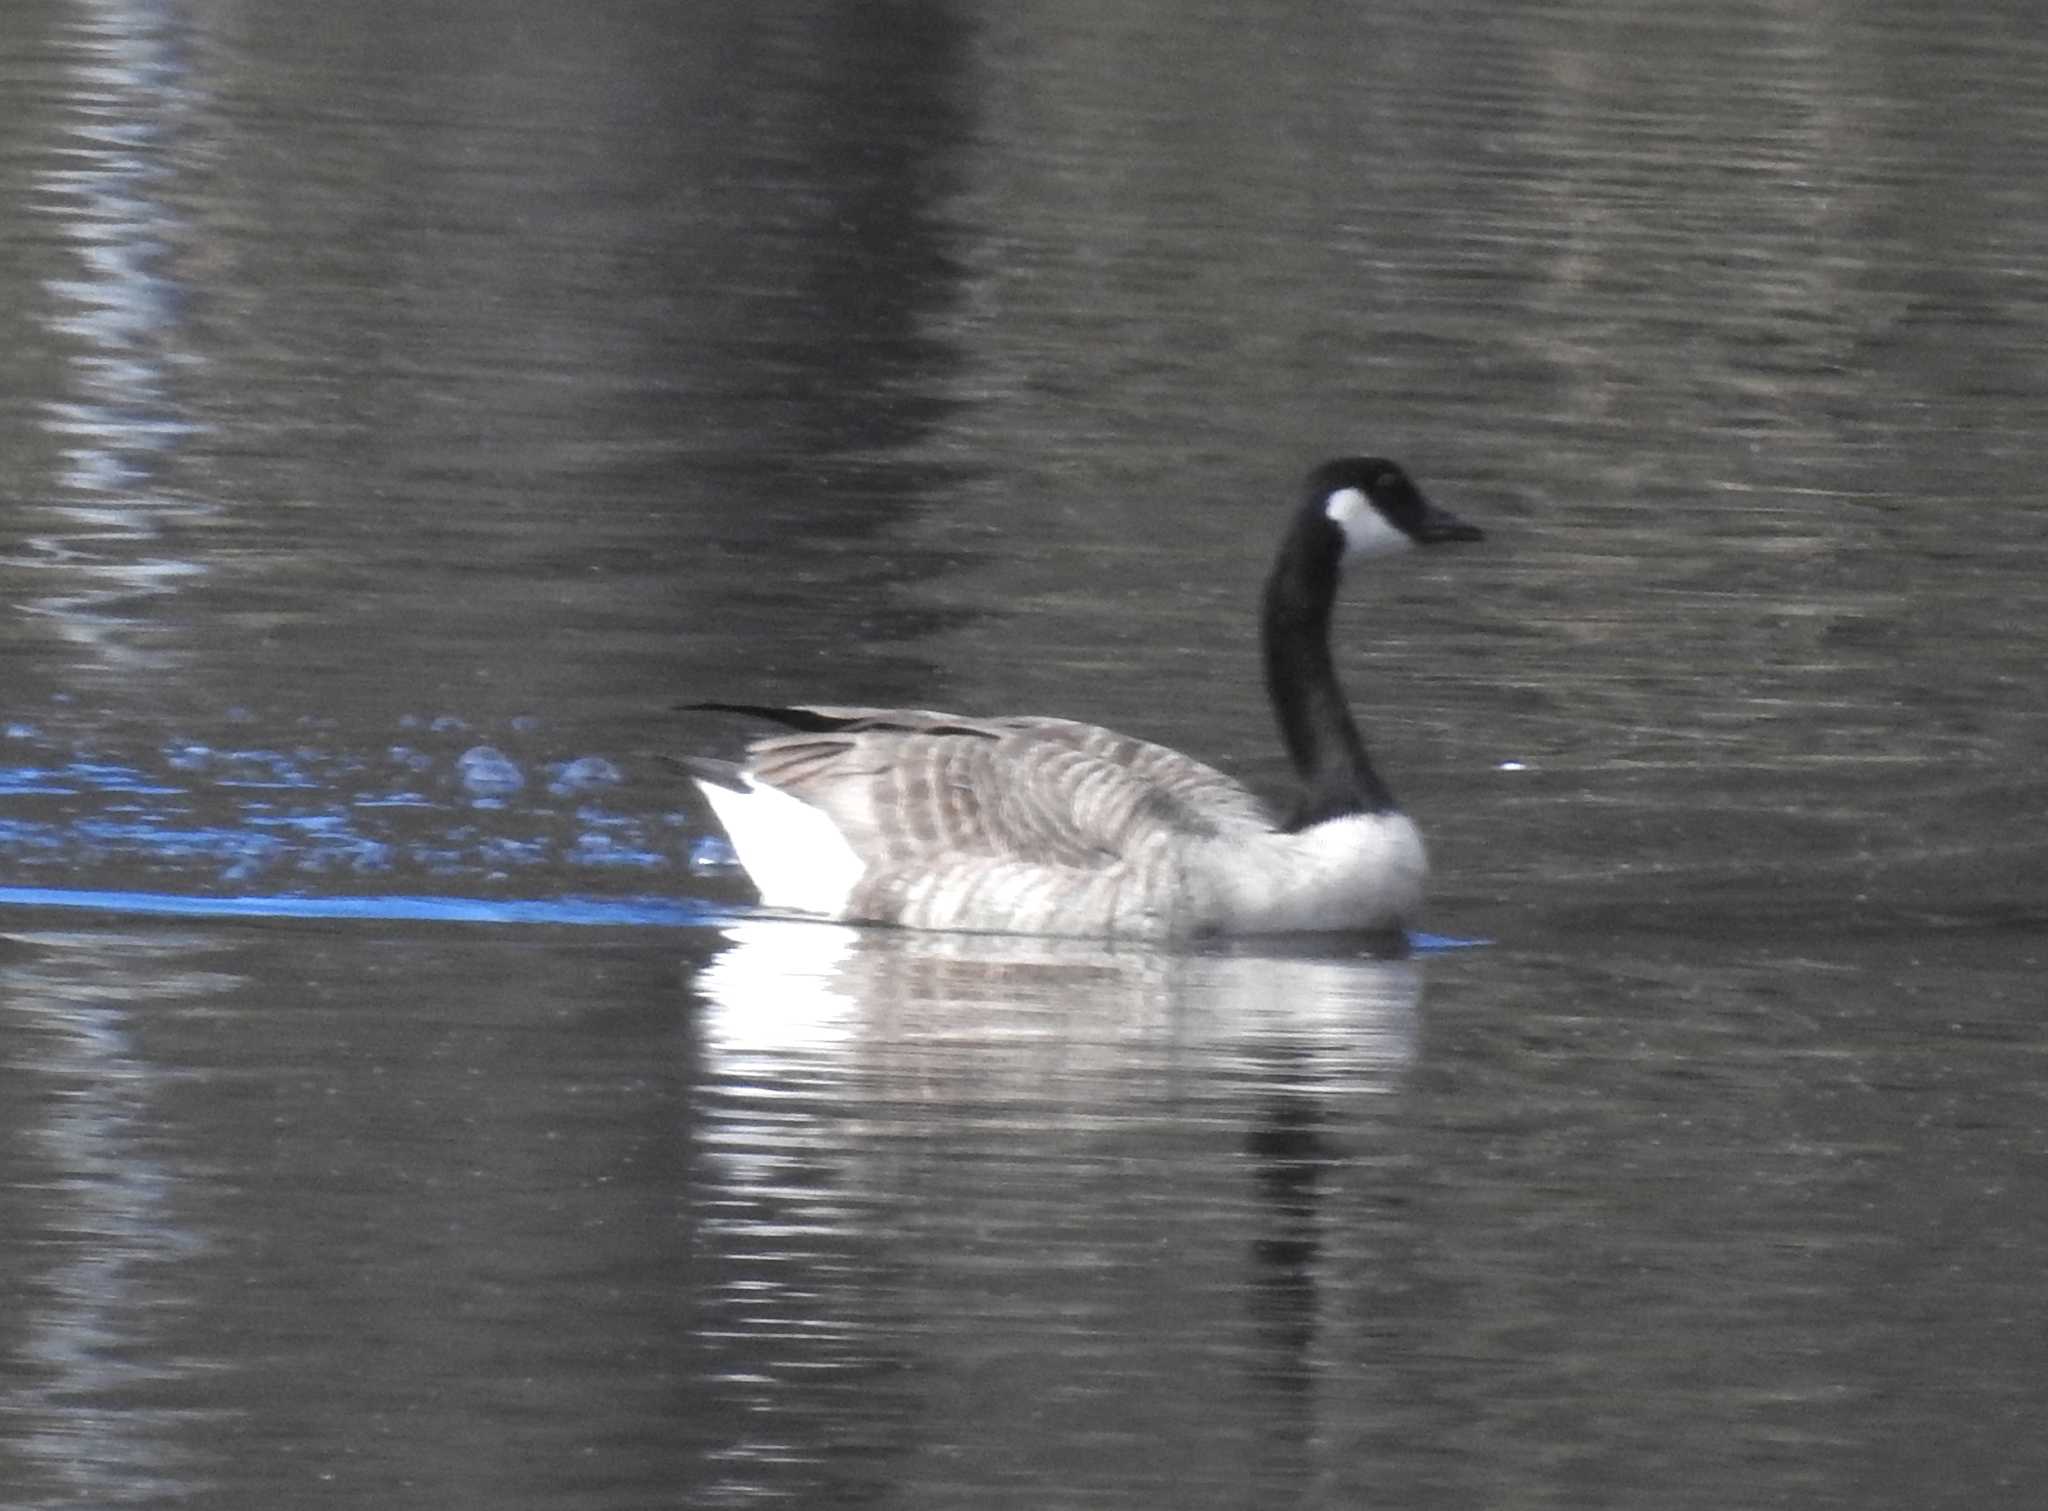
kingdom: Animalia
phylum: Chordata
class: Aves
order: Anseriformes
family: Anatidae
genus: Branta
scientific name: Branta canadensis
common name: Canada goose
